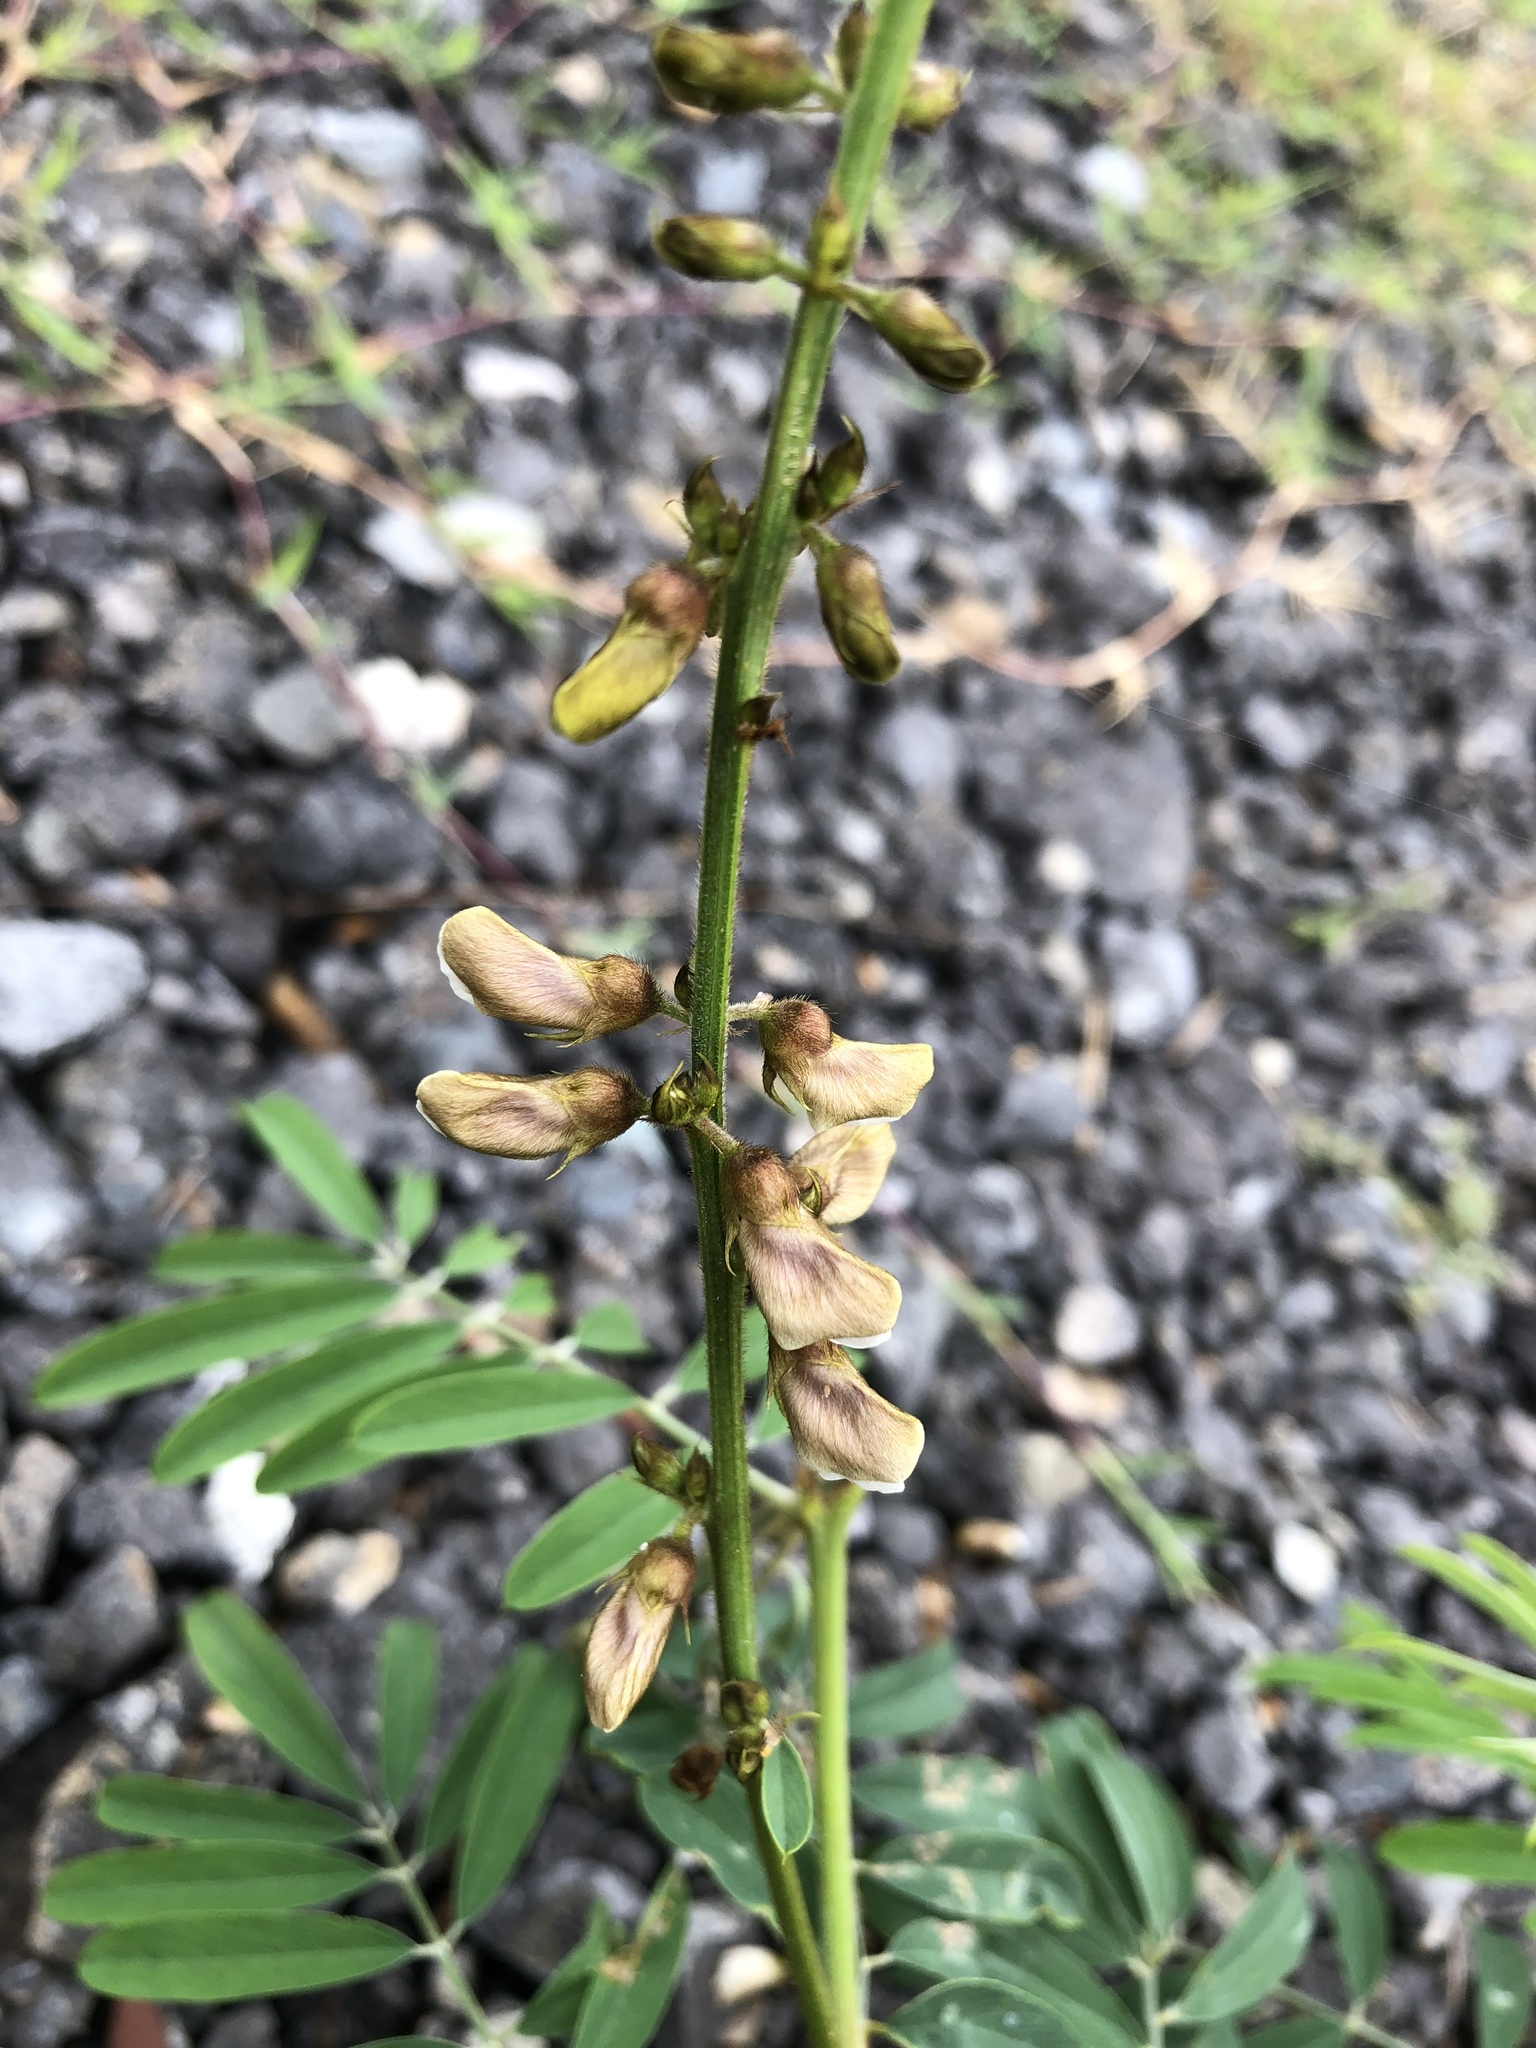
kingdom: Plantae
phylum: Tracheophyta
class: Magnoliopsida
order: Fabales
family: Fabaceae
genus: Tephrosia
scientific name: Tephrosia noctiflora
